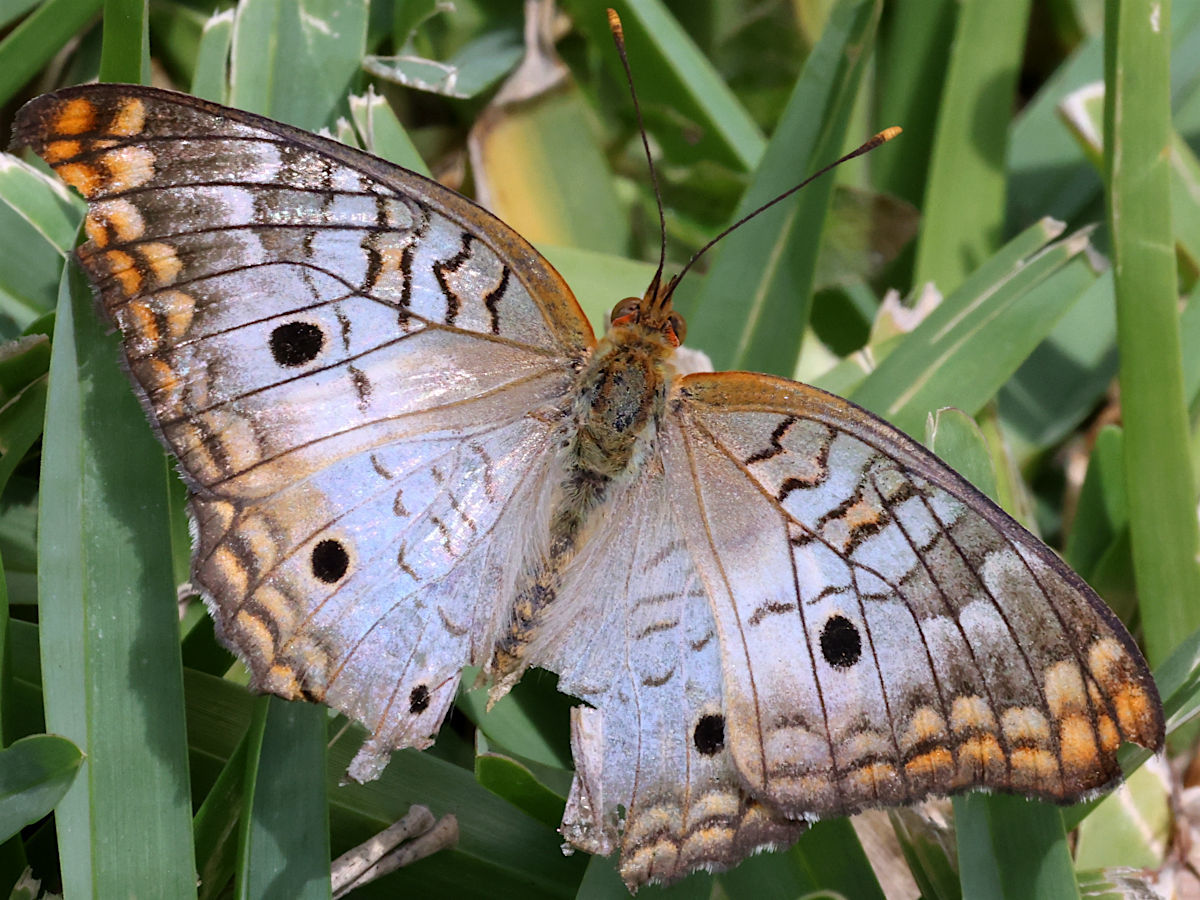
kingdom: Animalia
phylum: Arthropoda
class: Insecta
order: Lepidoptera
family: Nymphalidae
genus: Anartia
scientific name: Anartia jatrophae
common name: White peacock
